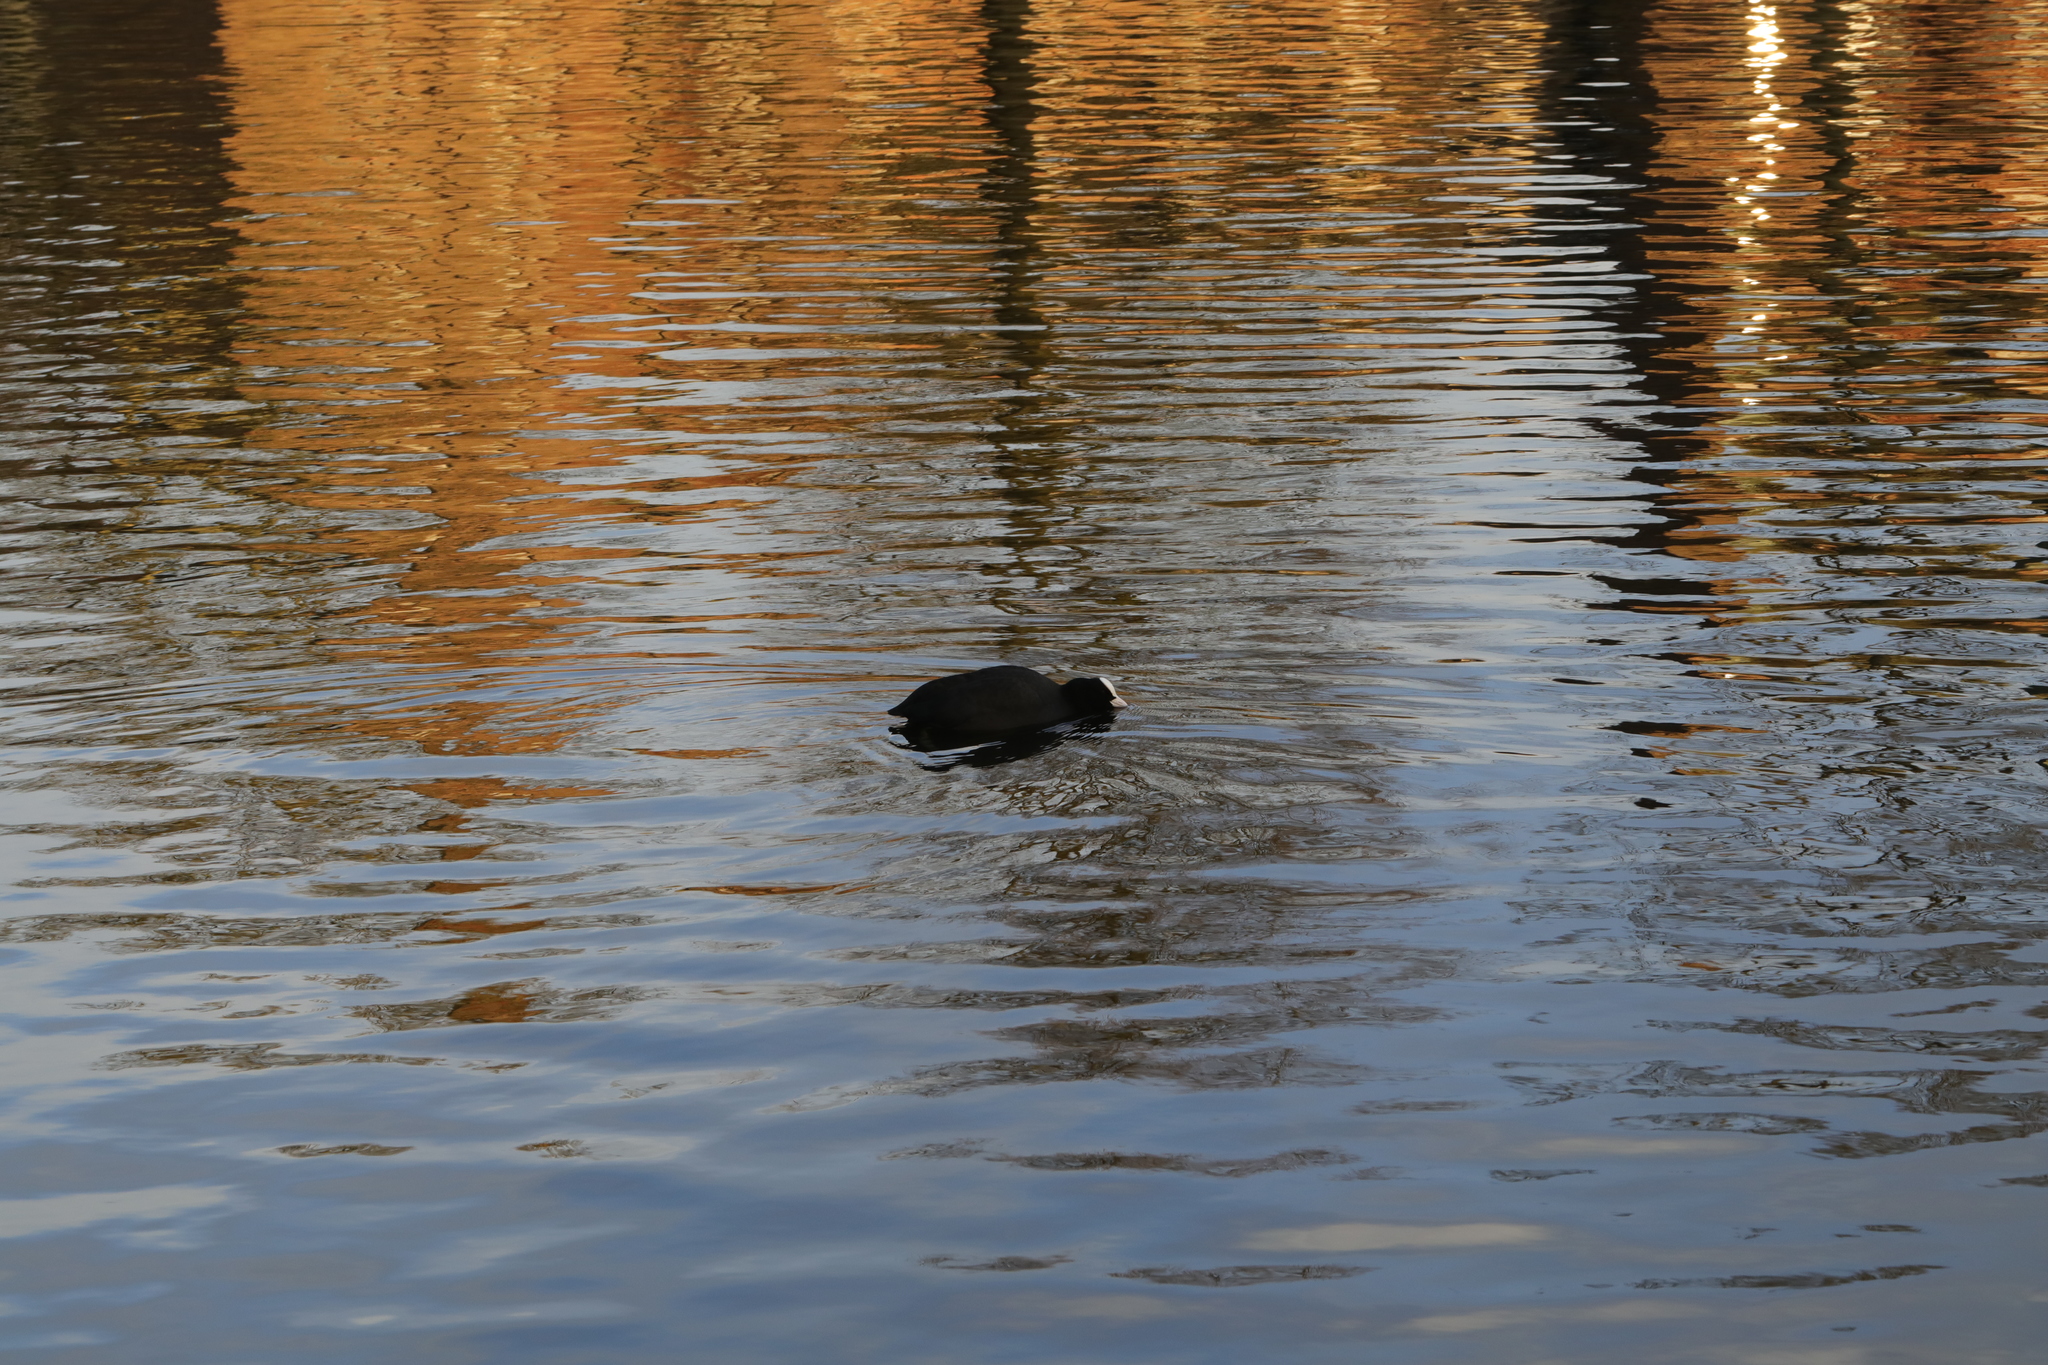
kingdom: Animalia
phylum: Chordata
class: Aves
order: Gruiformes
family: Rallidae
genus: Fulica
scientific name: Fulica atra
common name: Eurasian coot
